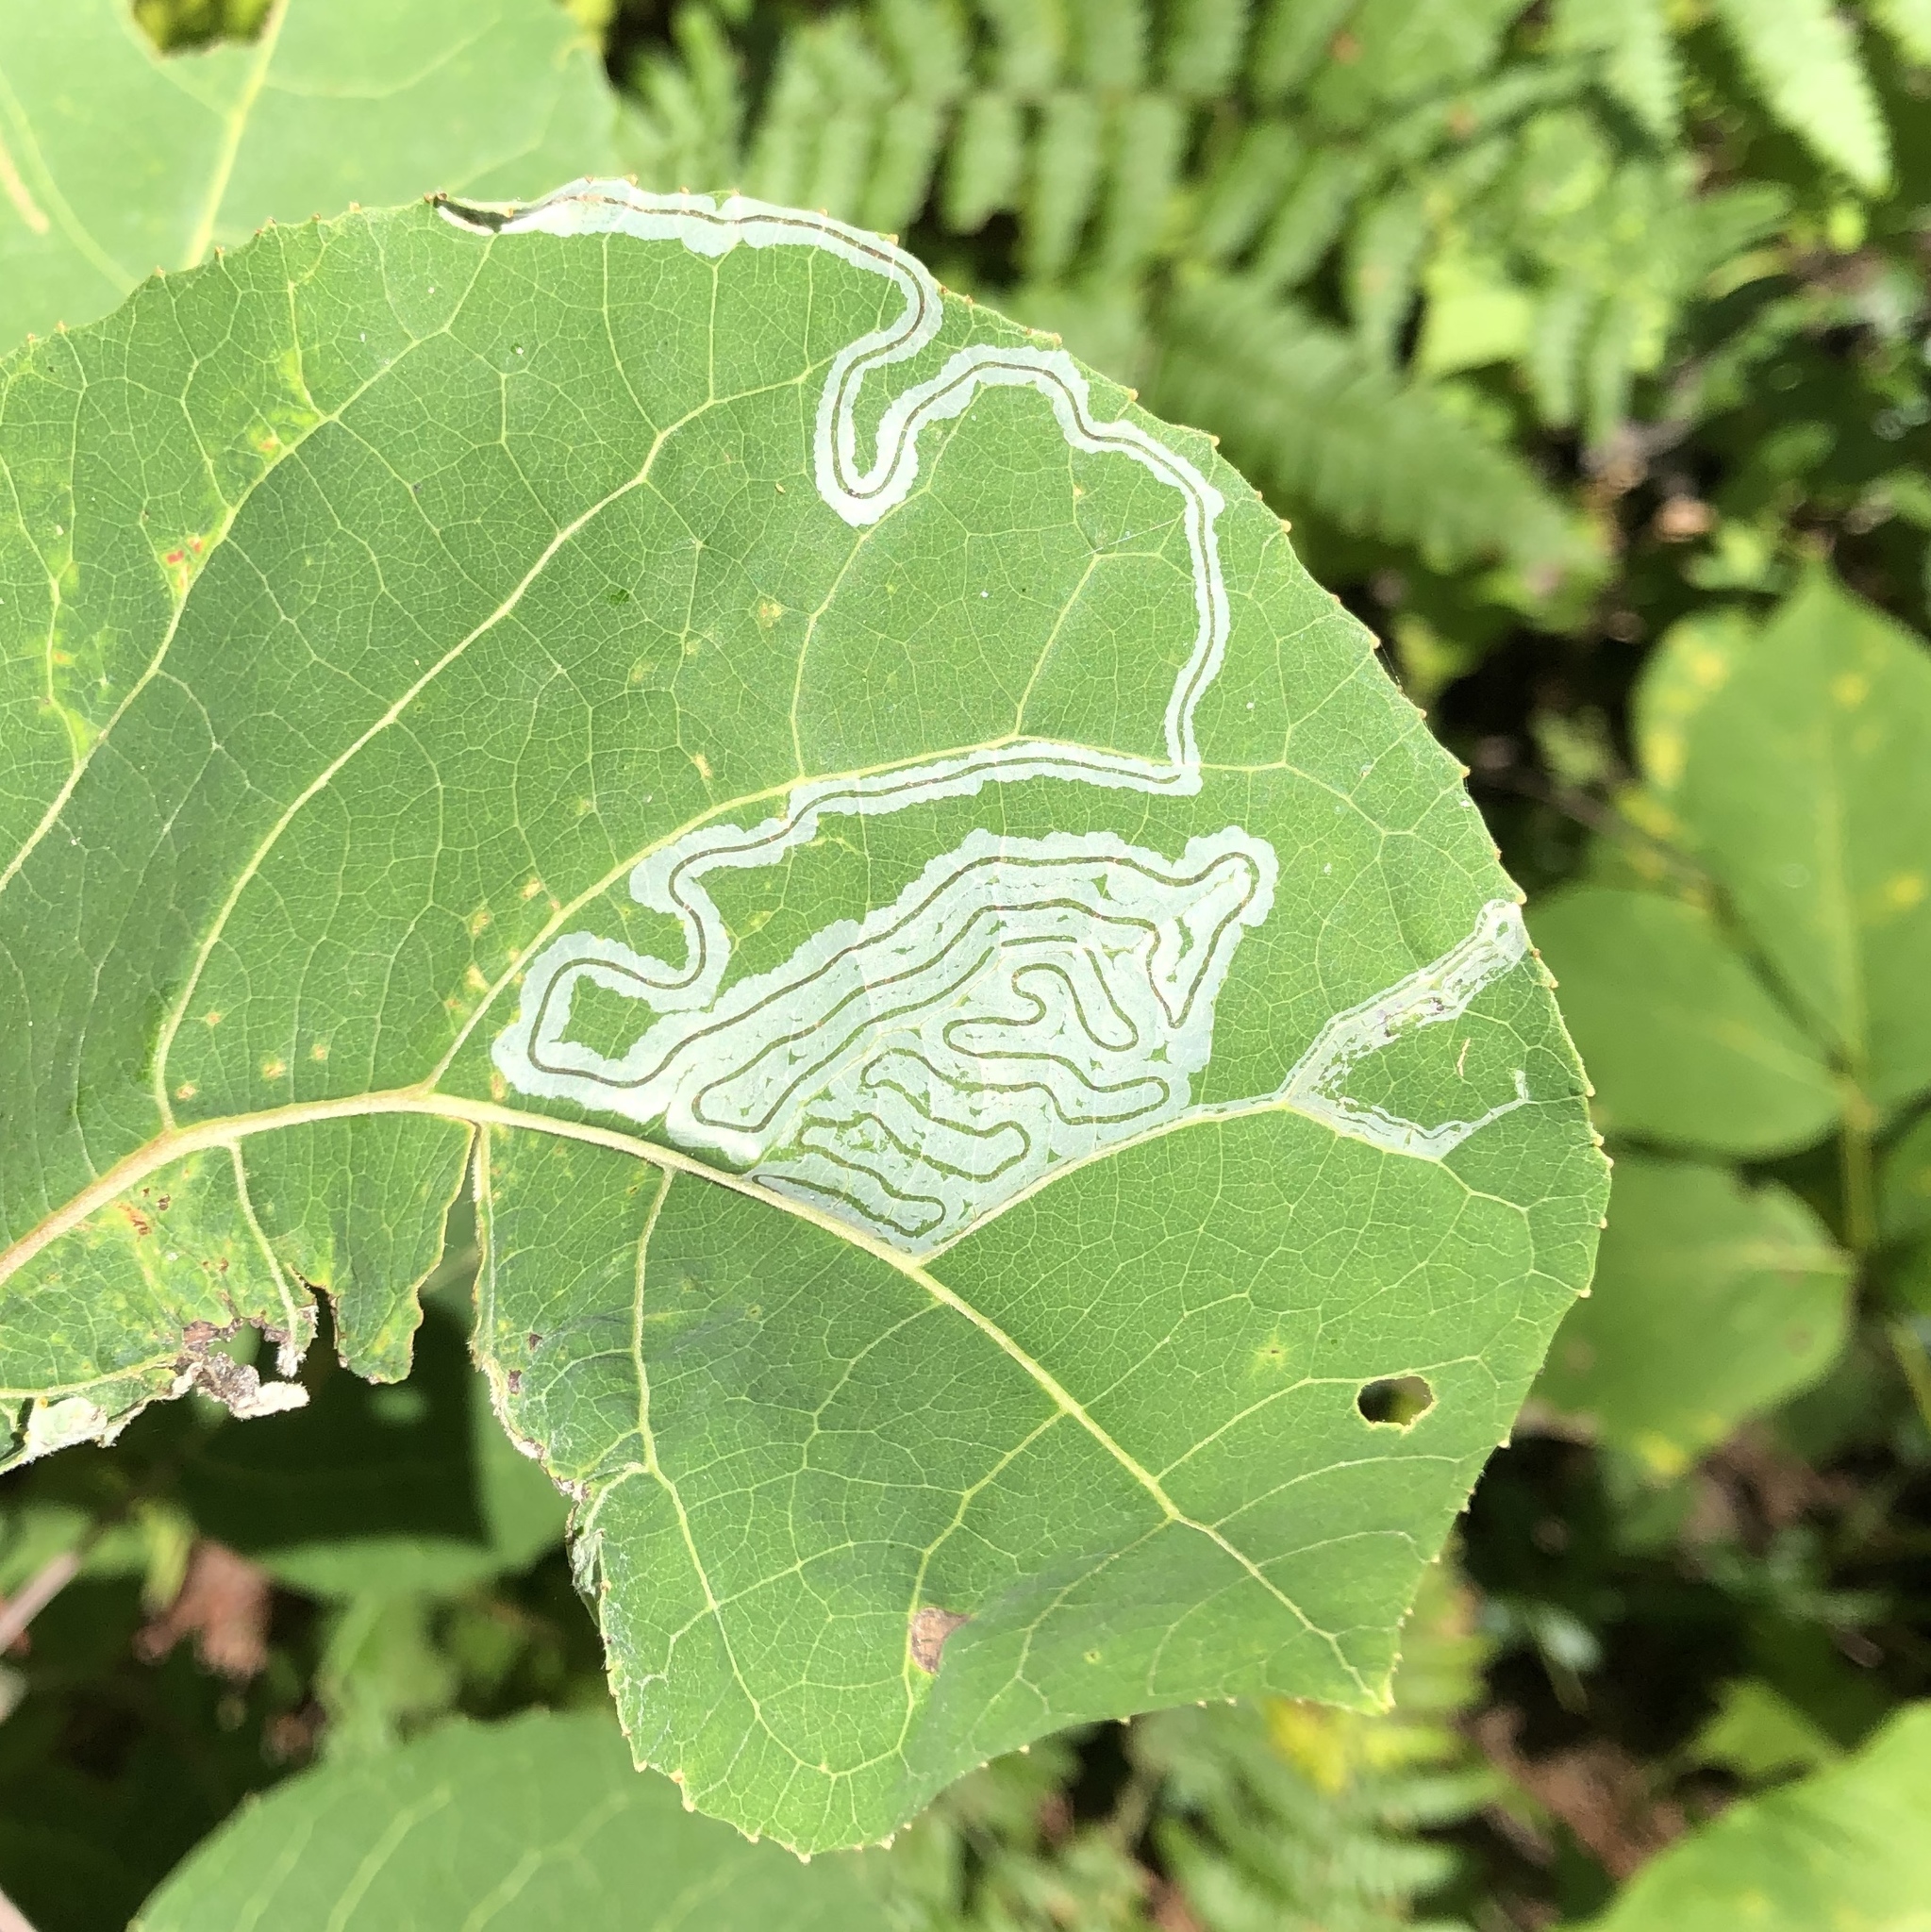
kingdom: Animalia
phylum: Arthropoda
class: Insecta
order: Lepidoptera
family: Gracillariidae
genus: Phyllocnistis
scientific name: Phyllocnistis populiella
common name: Aspen serpentine leafminer moth
